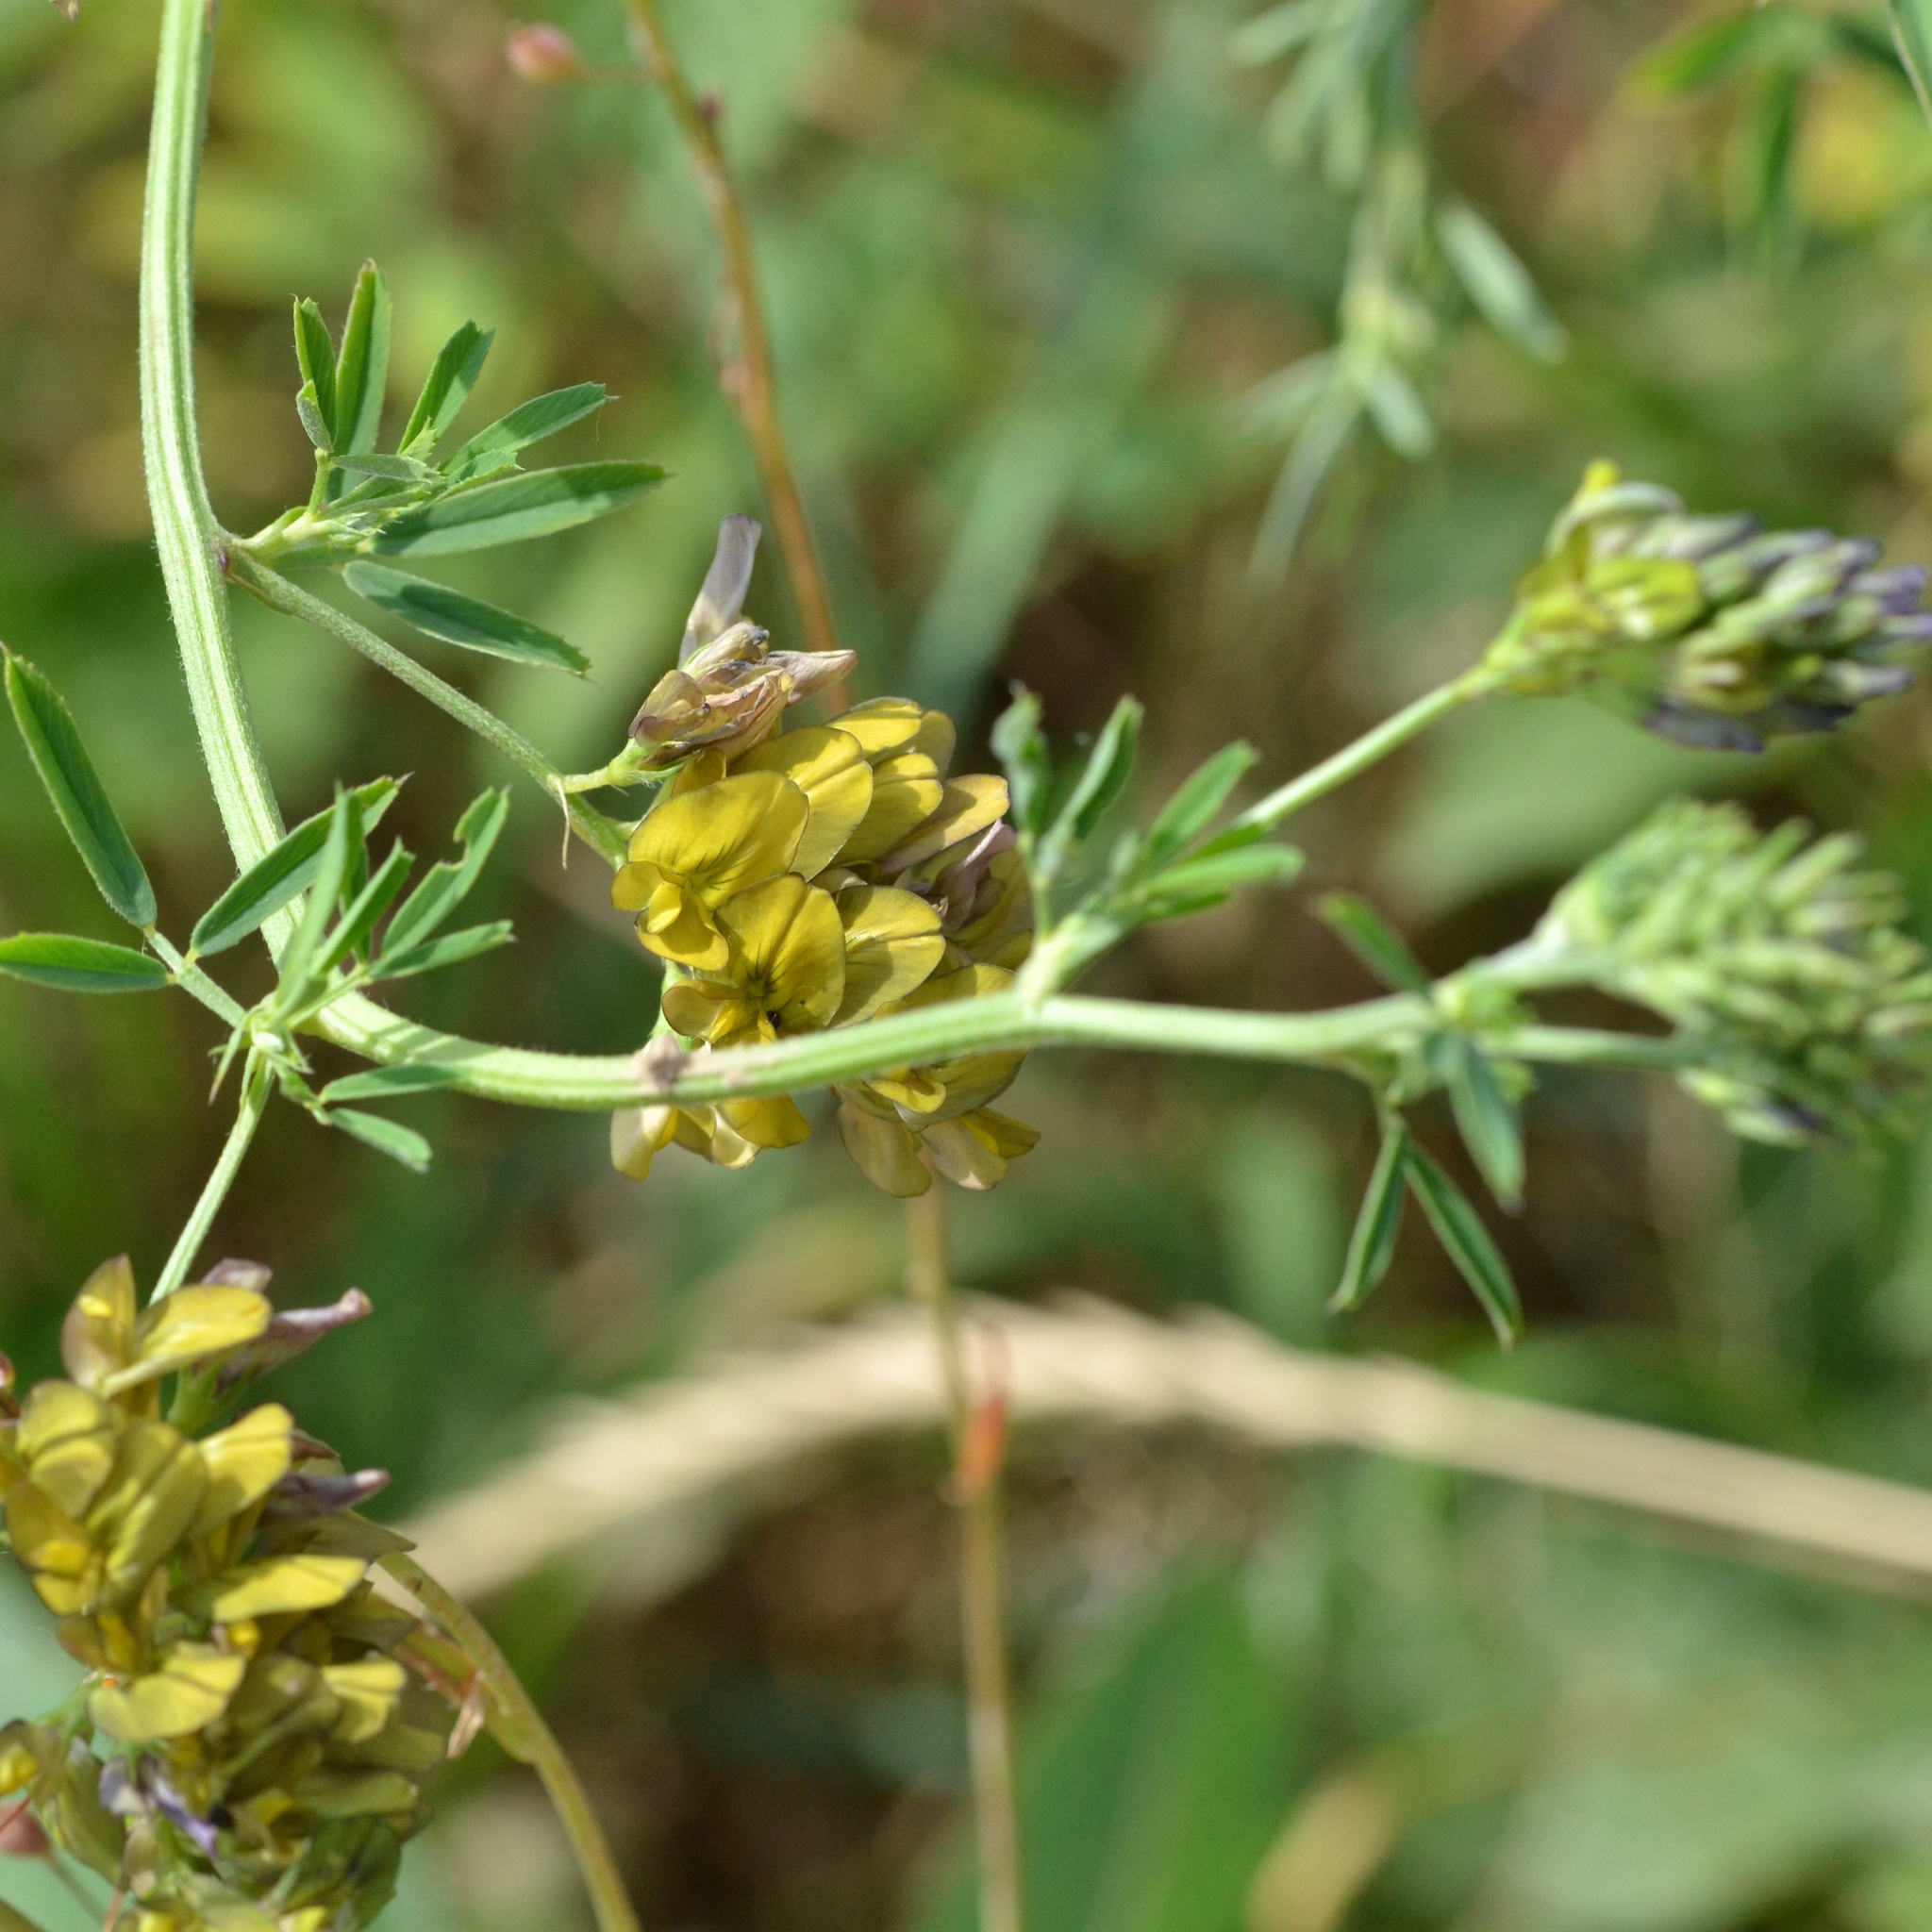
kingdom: Plantae
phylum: Tracheophyta
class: Magnoliopsida
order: Fabales
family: Fabaceae
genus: Medicago
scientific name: Medicago varia
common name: Sand lucerne
